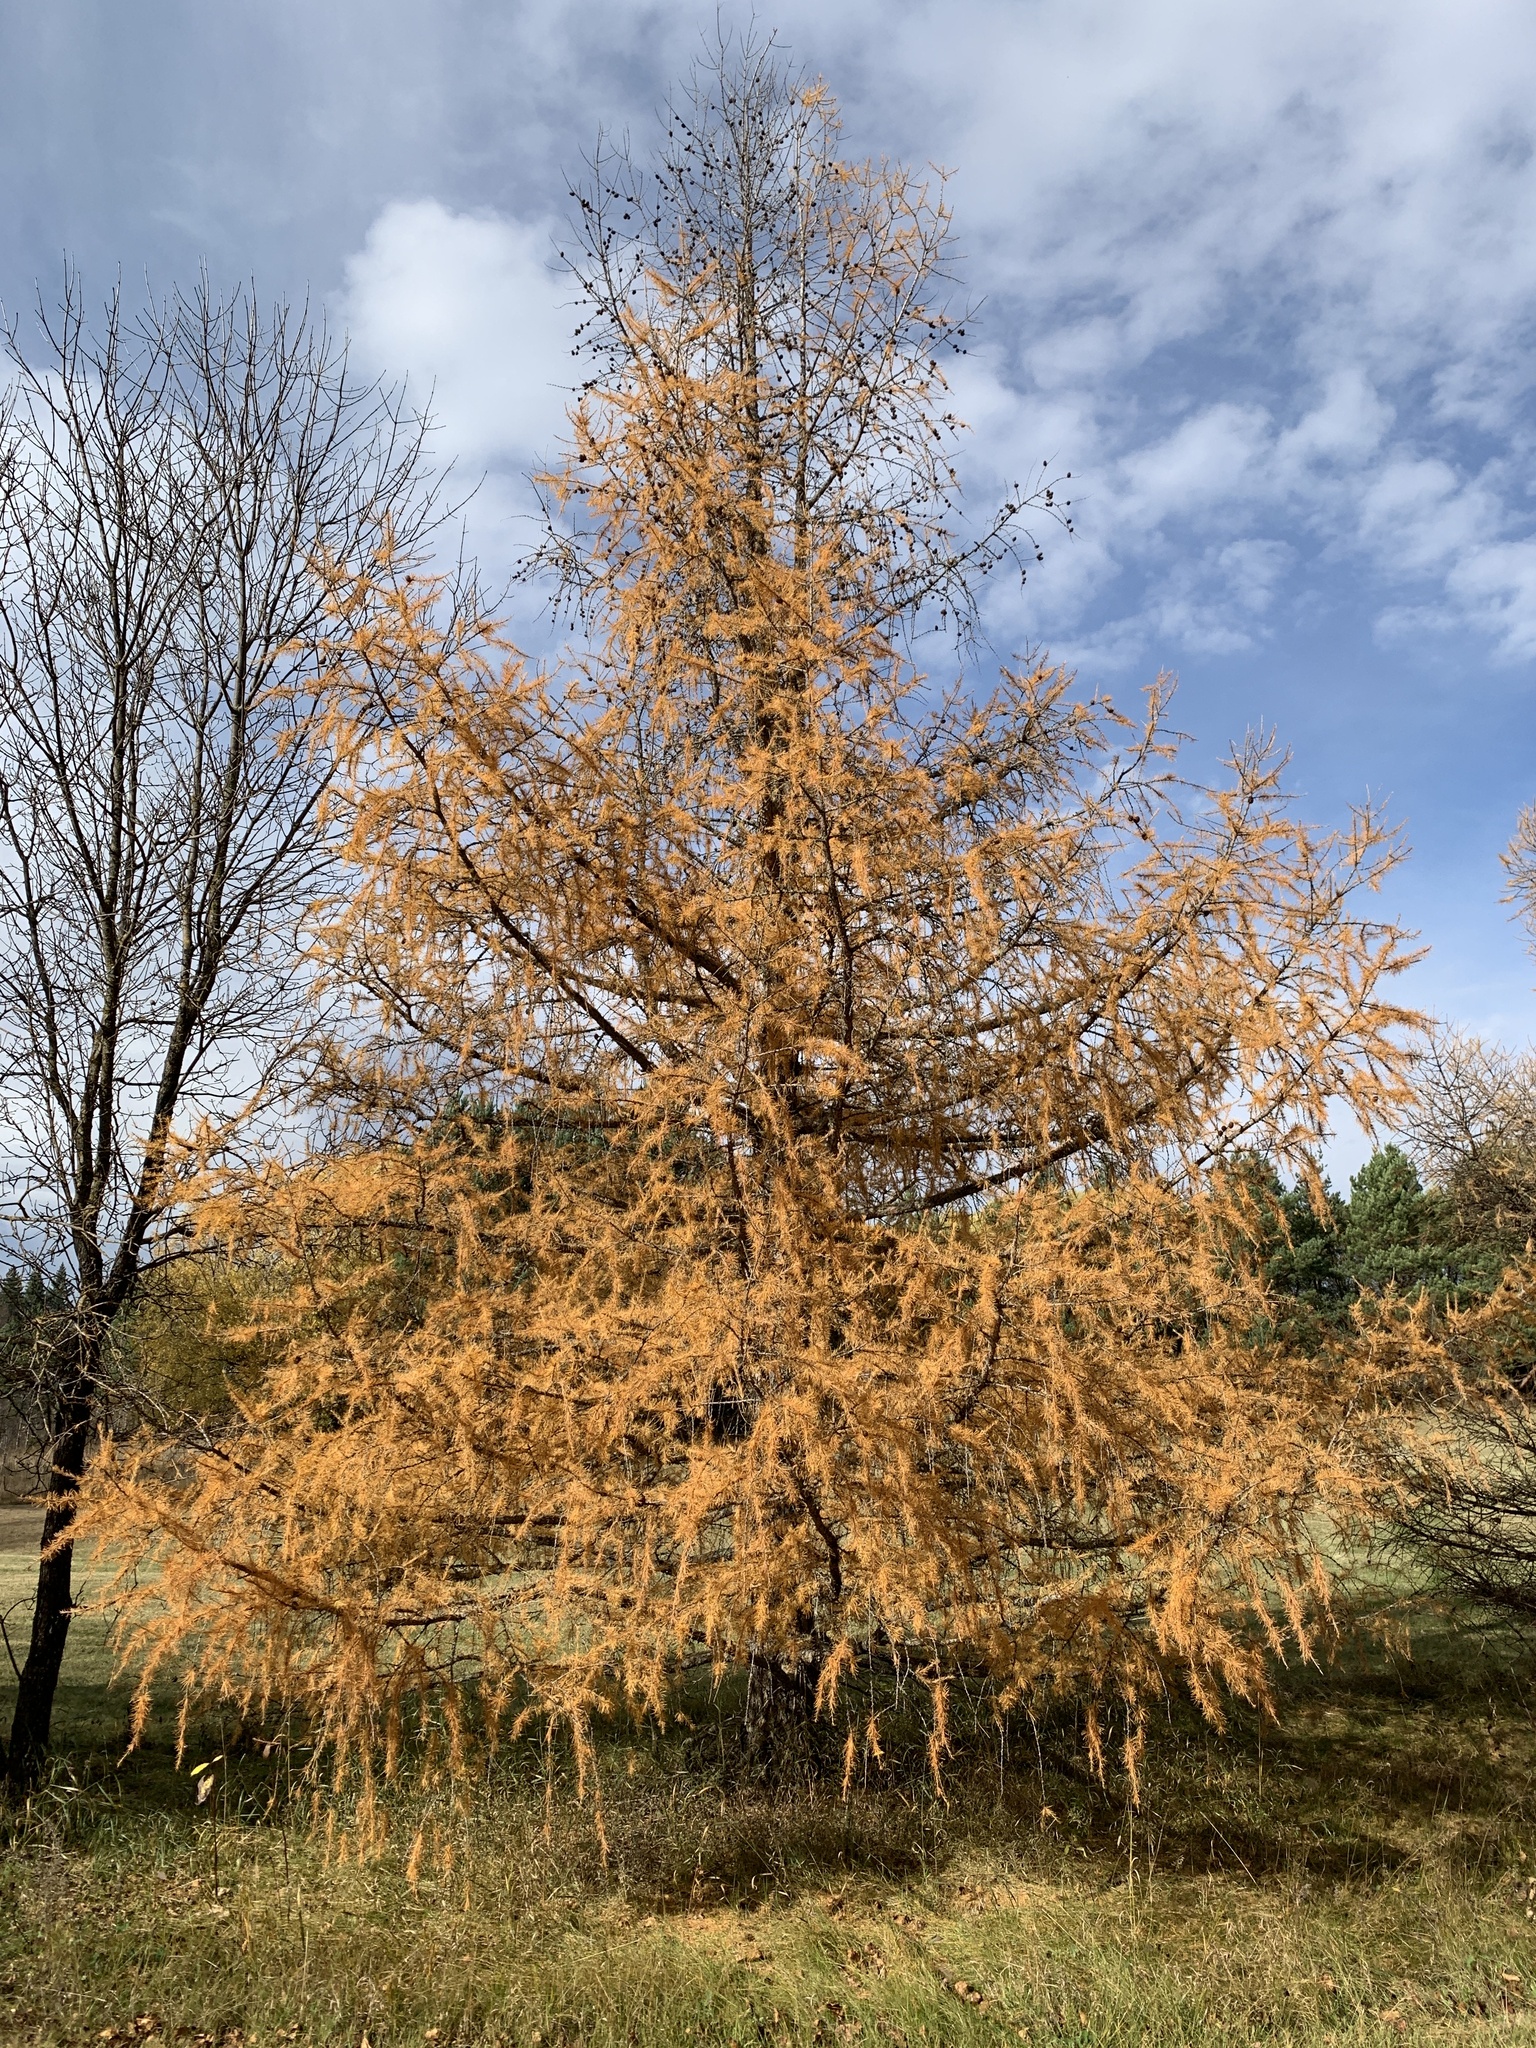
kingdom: Plantae
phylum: Tracheophyta
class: Pinopsida
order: Pinales
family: Pinaceae
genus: Larix
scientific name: Larix laricina
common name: American larch
